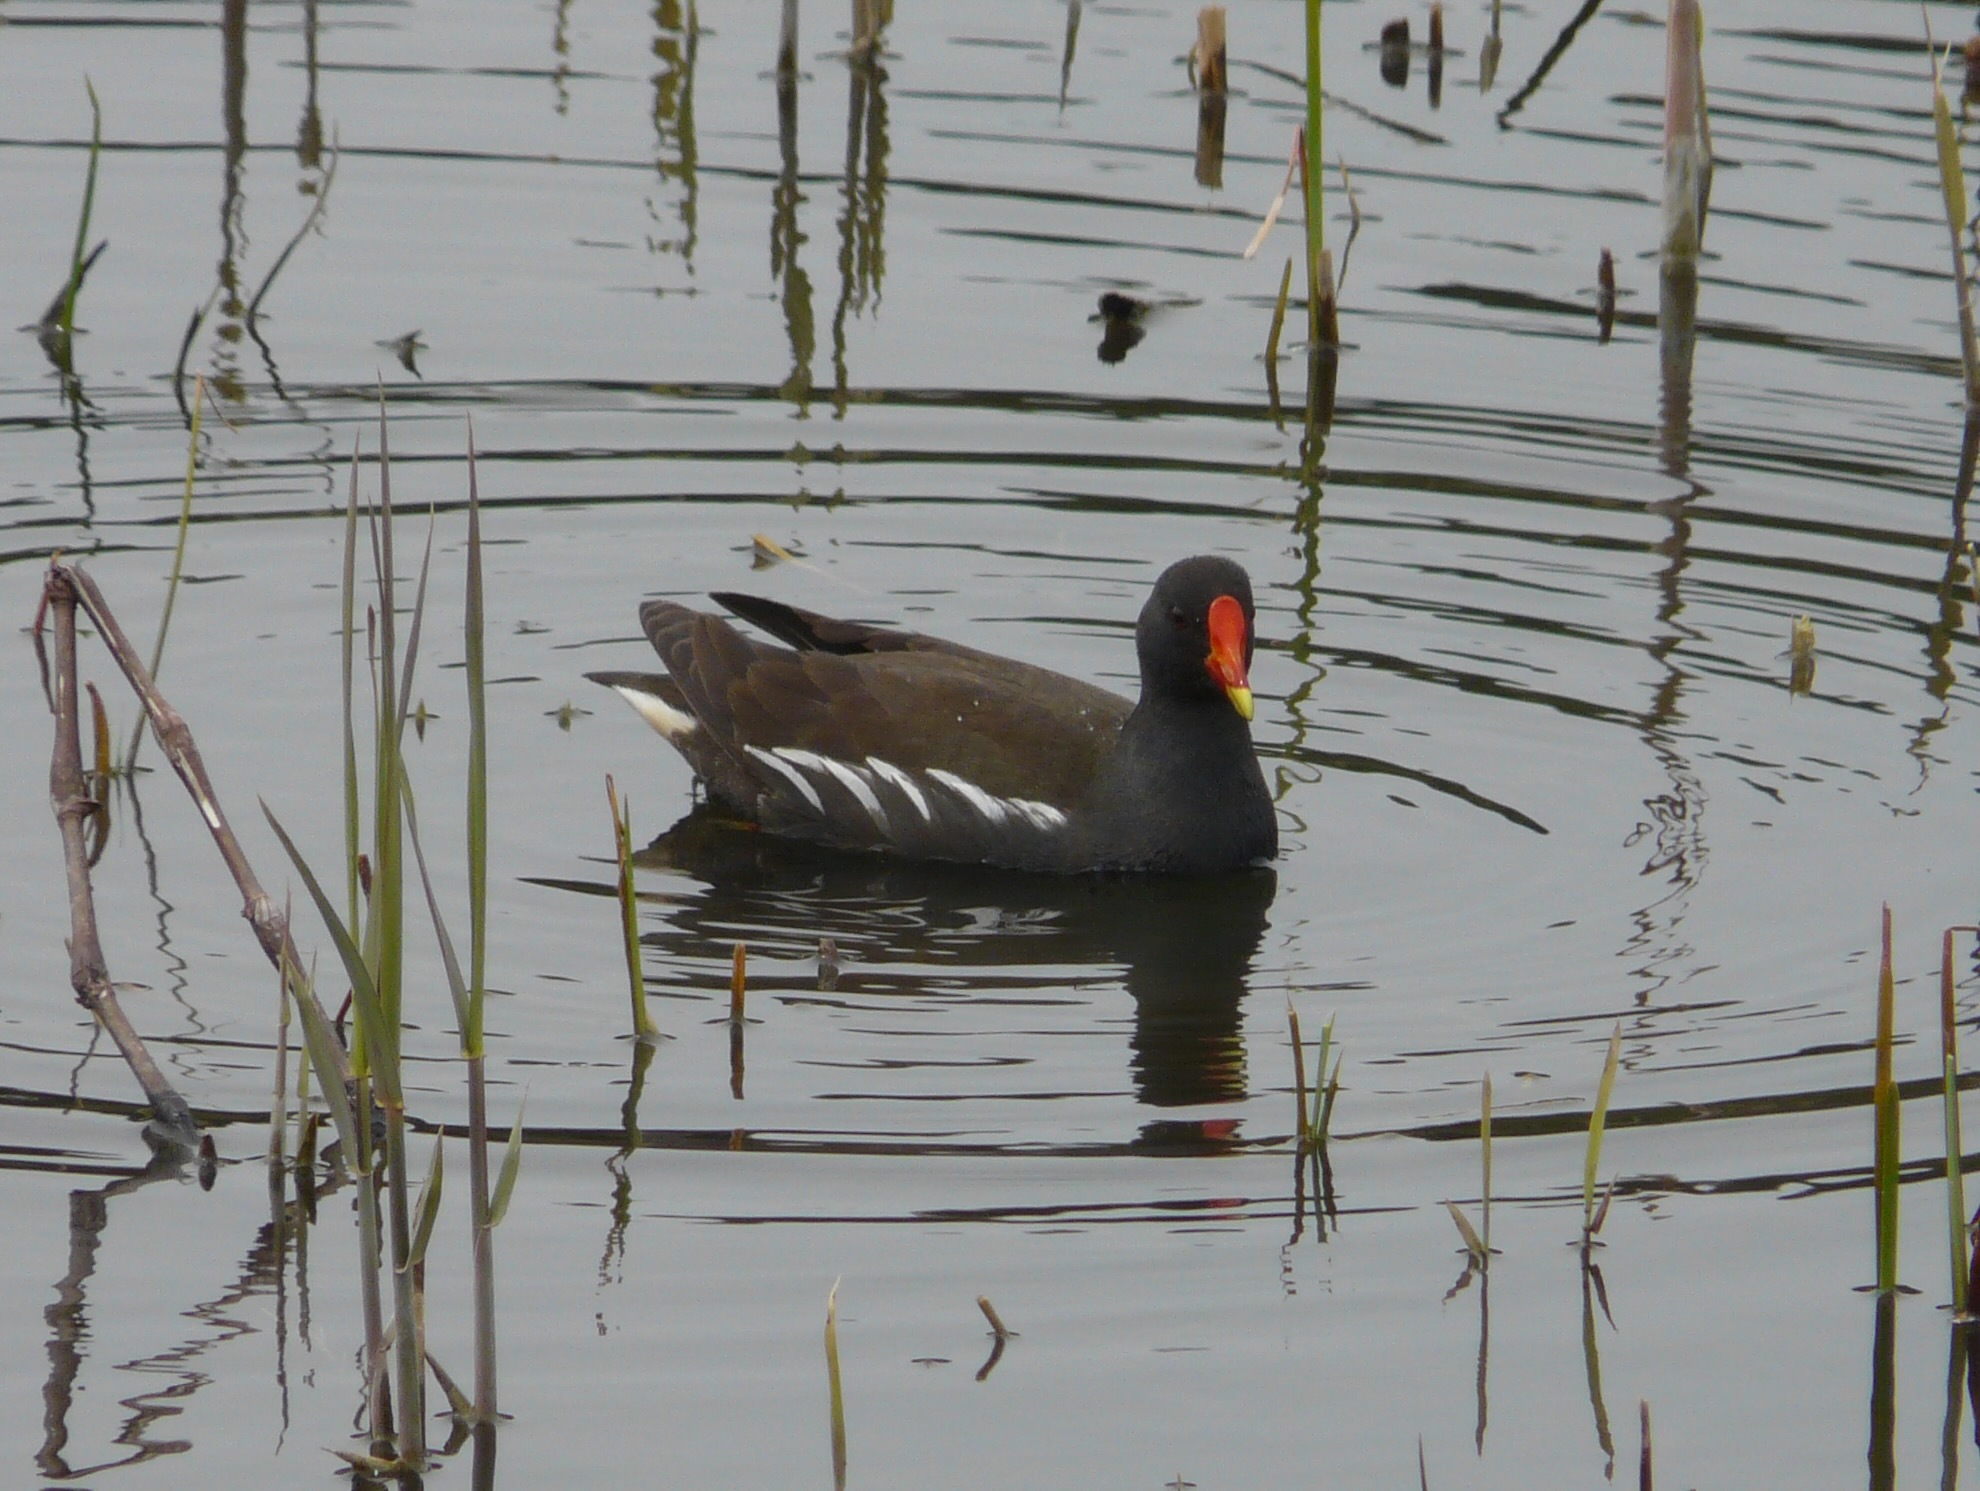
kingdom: Animalia
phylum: Chordata
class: Aves
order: Gruiformes
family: Rallidae
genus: Gallinula
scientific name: Gallinula chloropus
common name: Common moorhen
